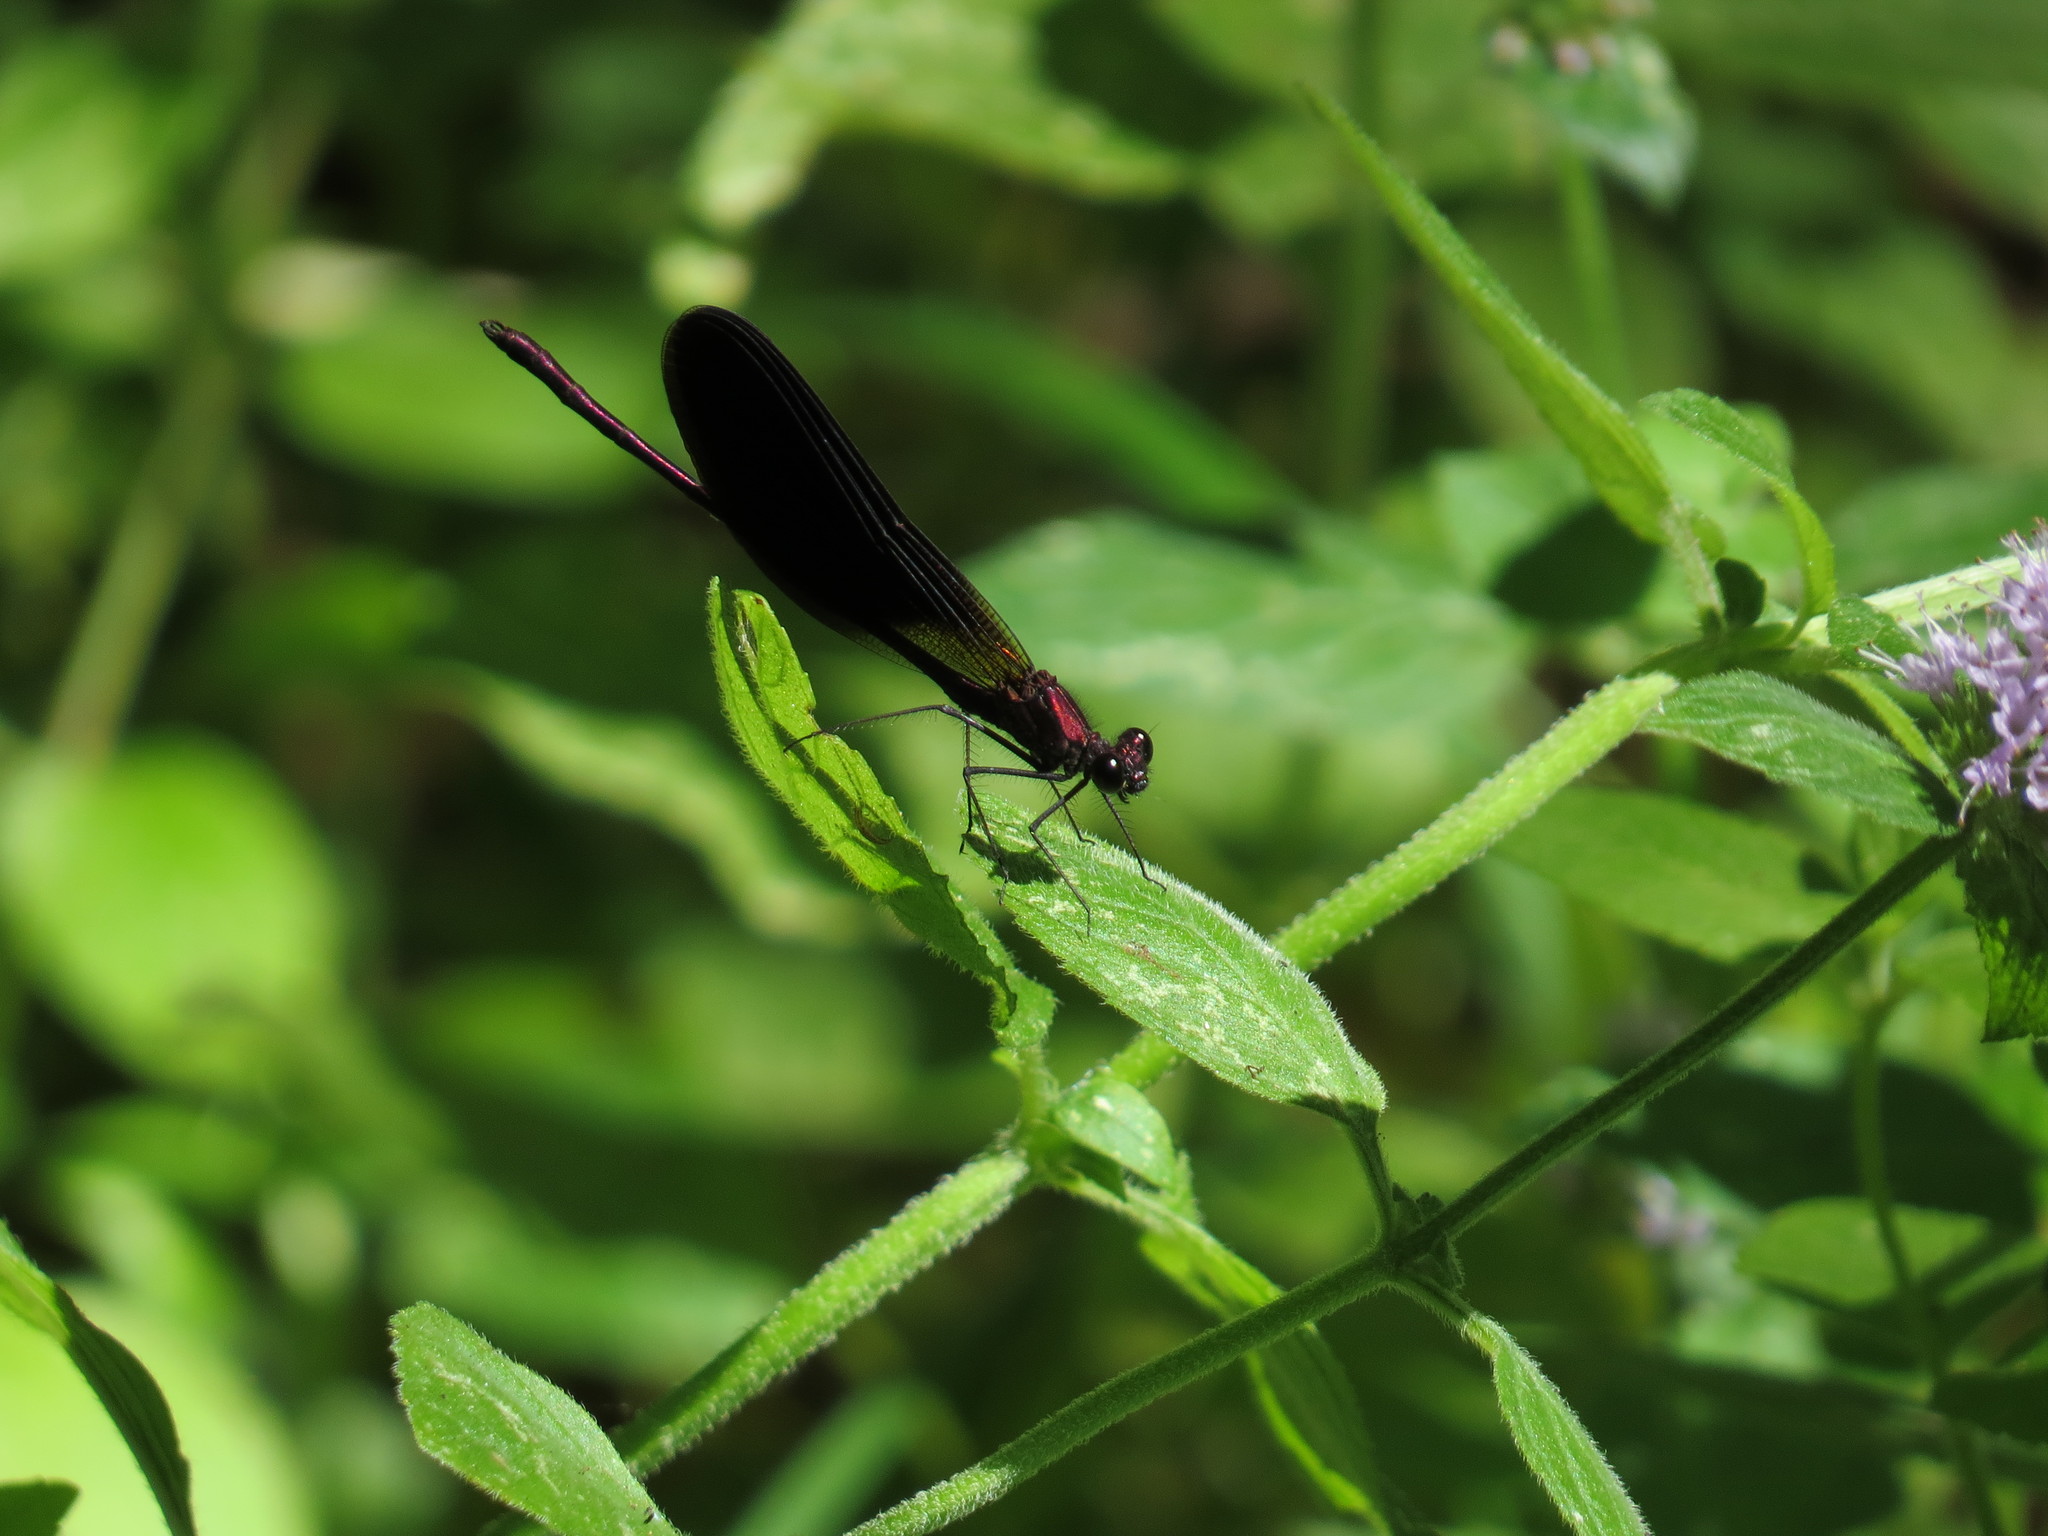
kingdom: Animalia
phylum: Arthropoda
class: Insecta
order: Odonata
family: Calopterygidae
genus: Calopteryx
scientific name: Calopteryx haemorrhoidalis
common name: Copper demoiselle
